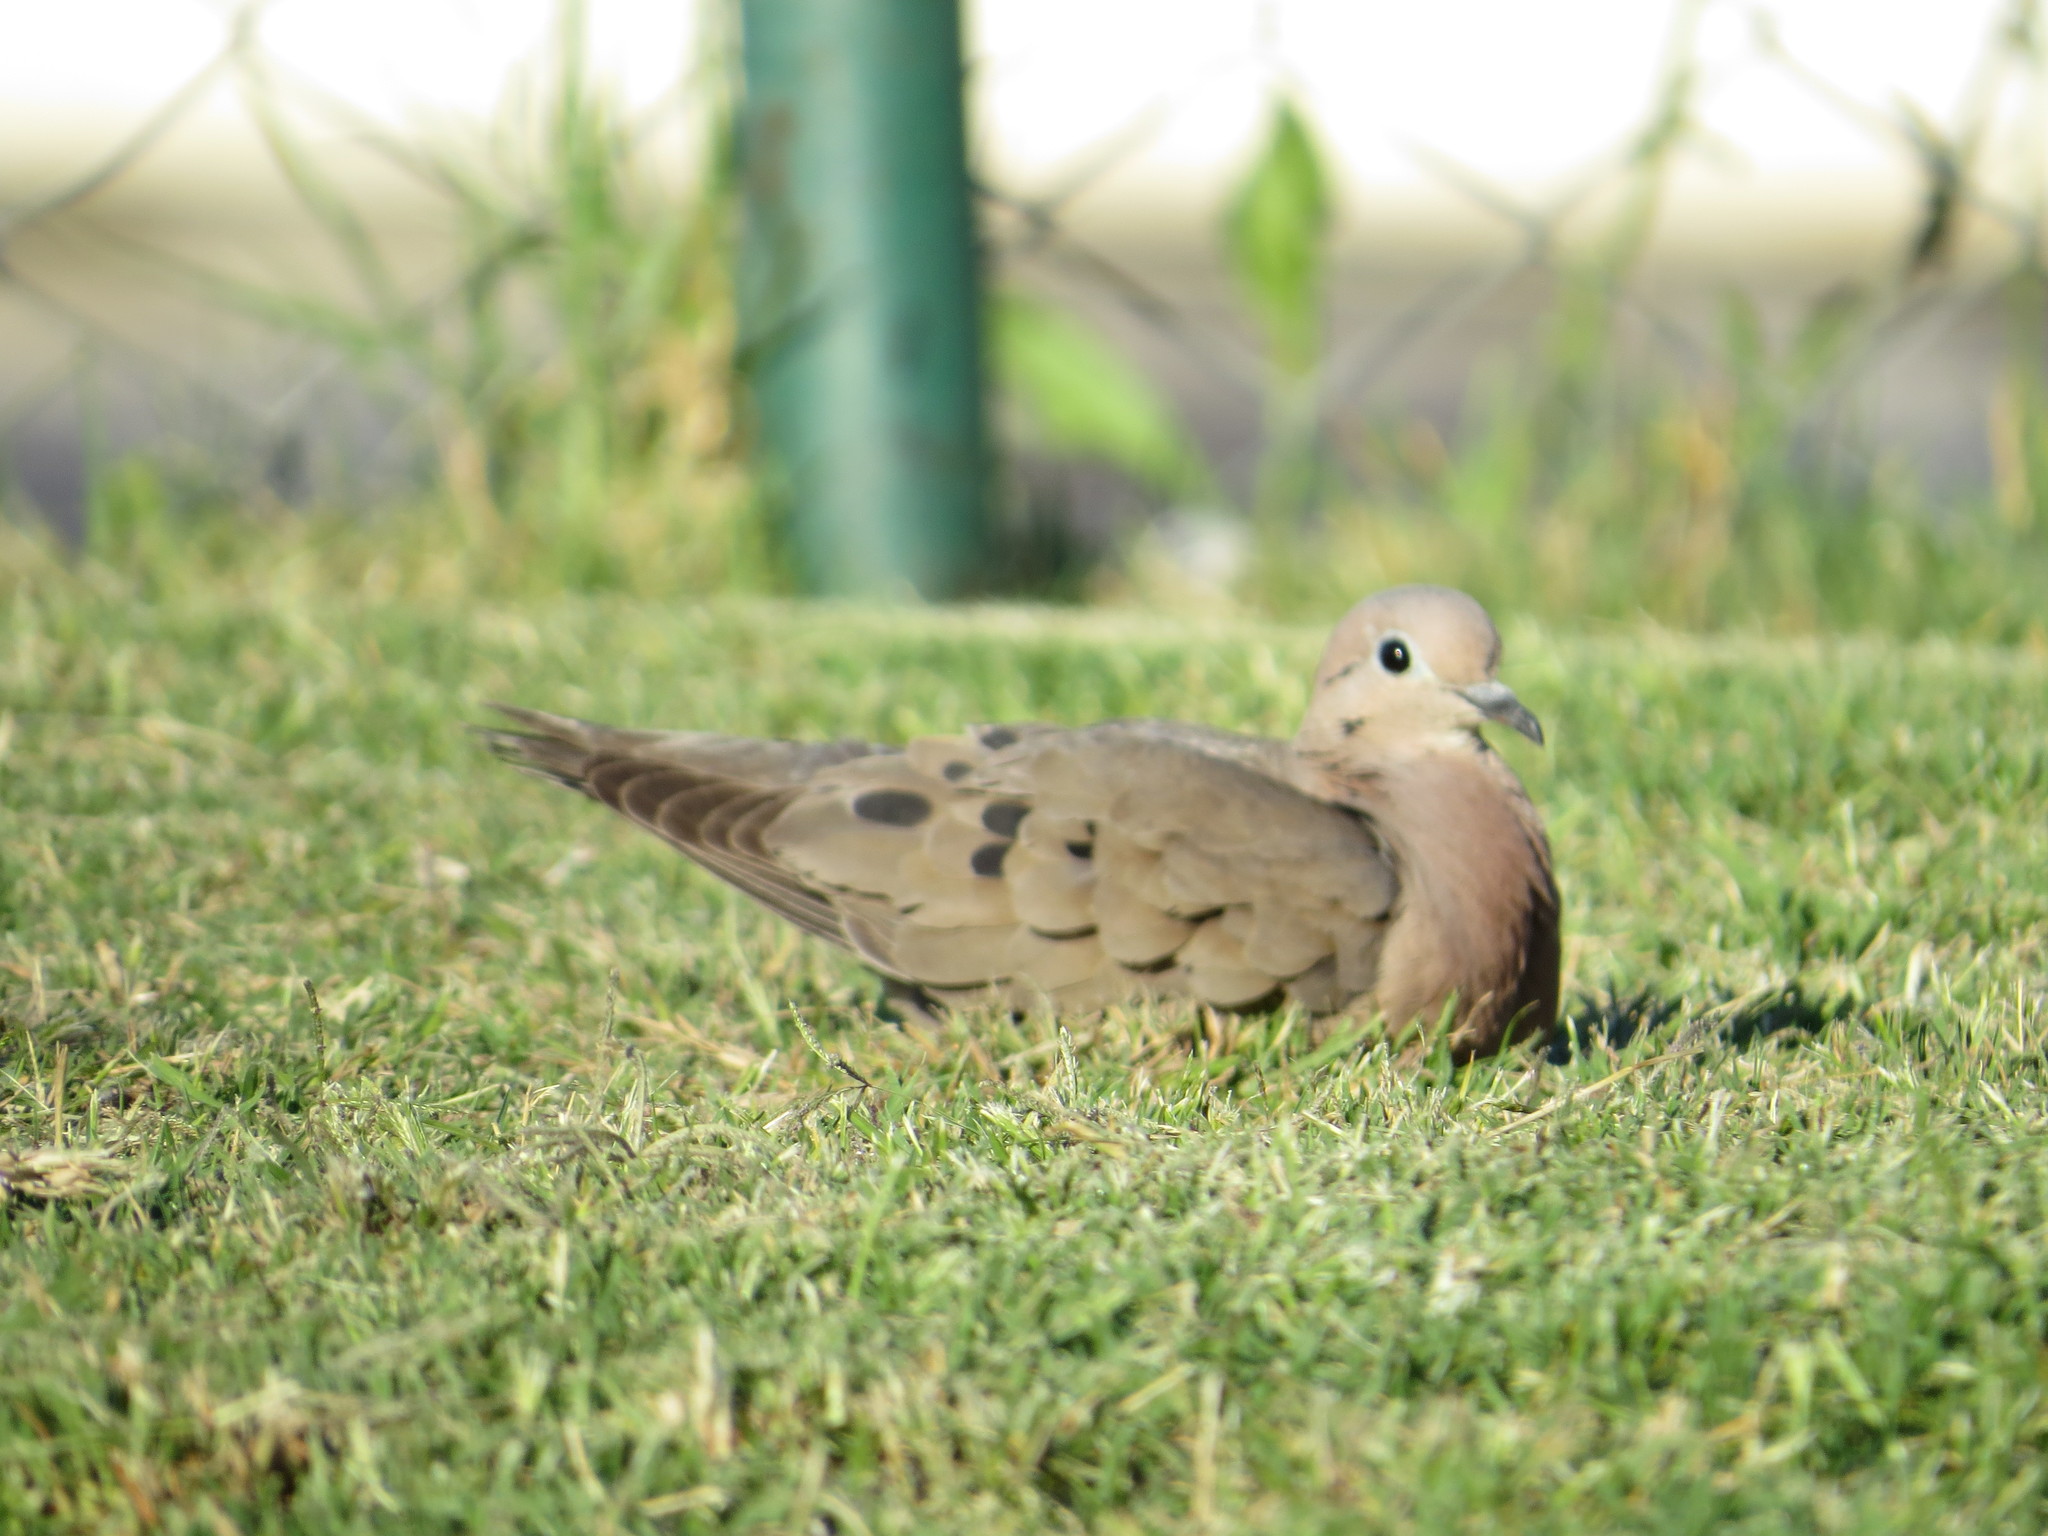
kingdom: Animalia
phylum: Chordata
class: Aves
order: Columbiformes
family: Columbidae
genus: Zenaida
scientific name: Zenaida auriculata
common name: Eared dove
